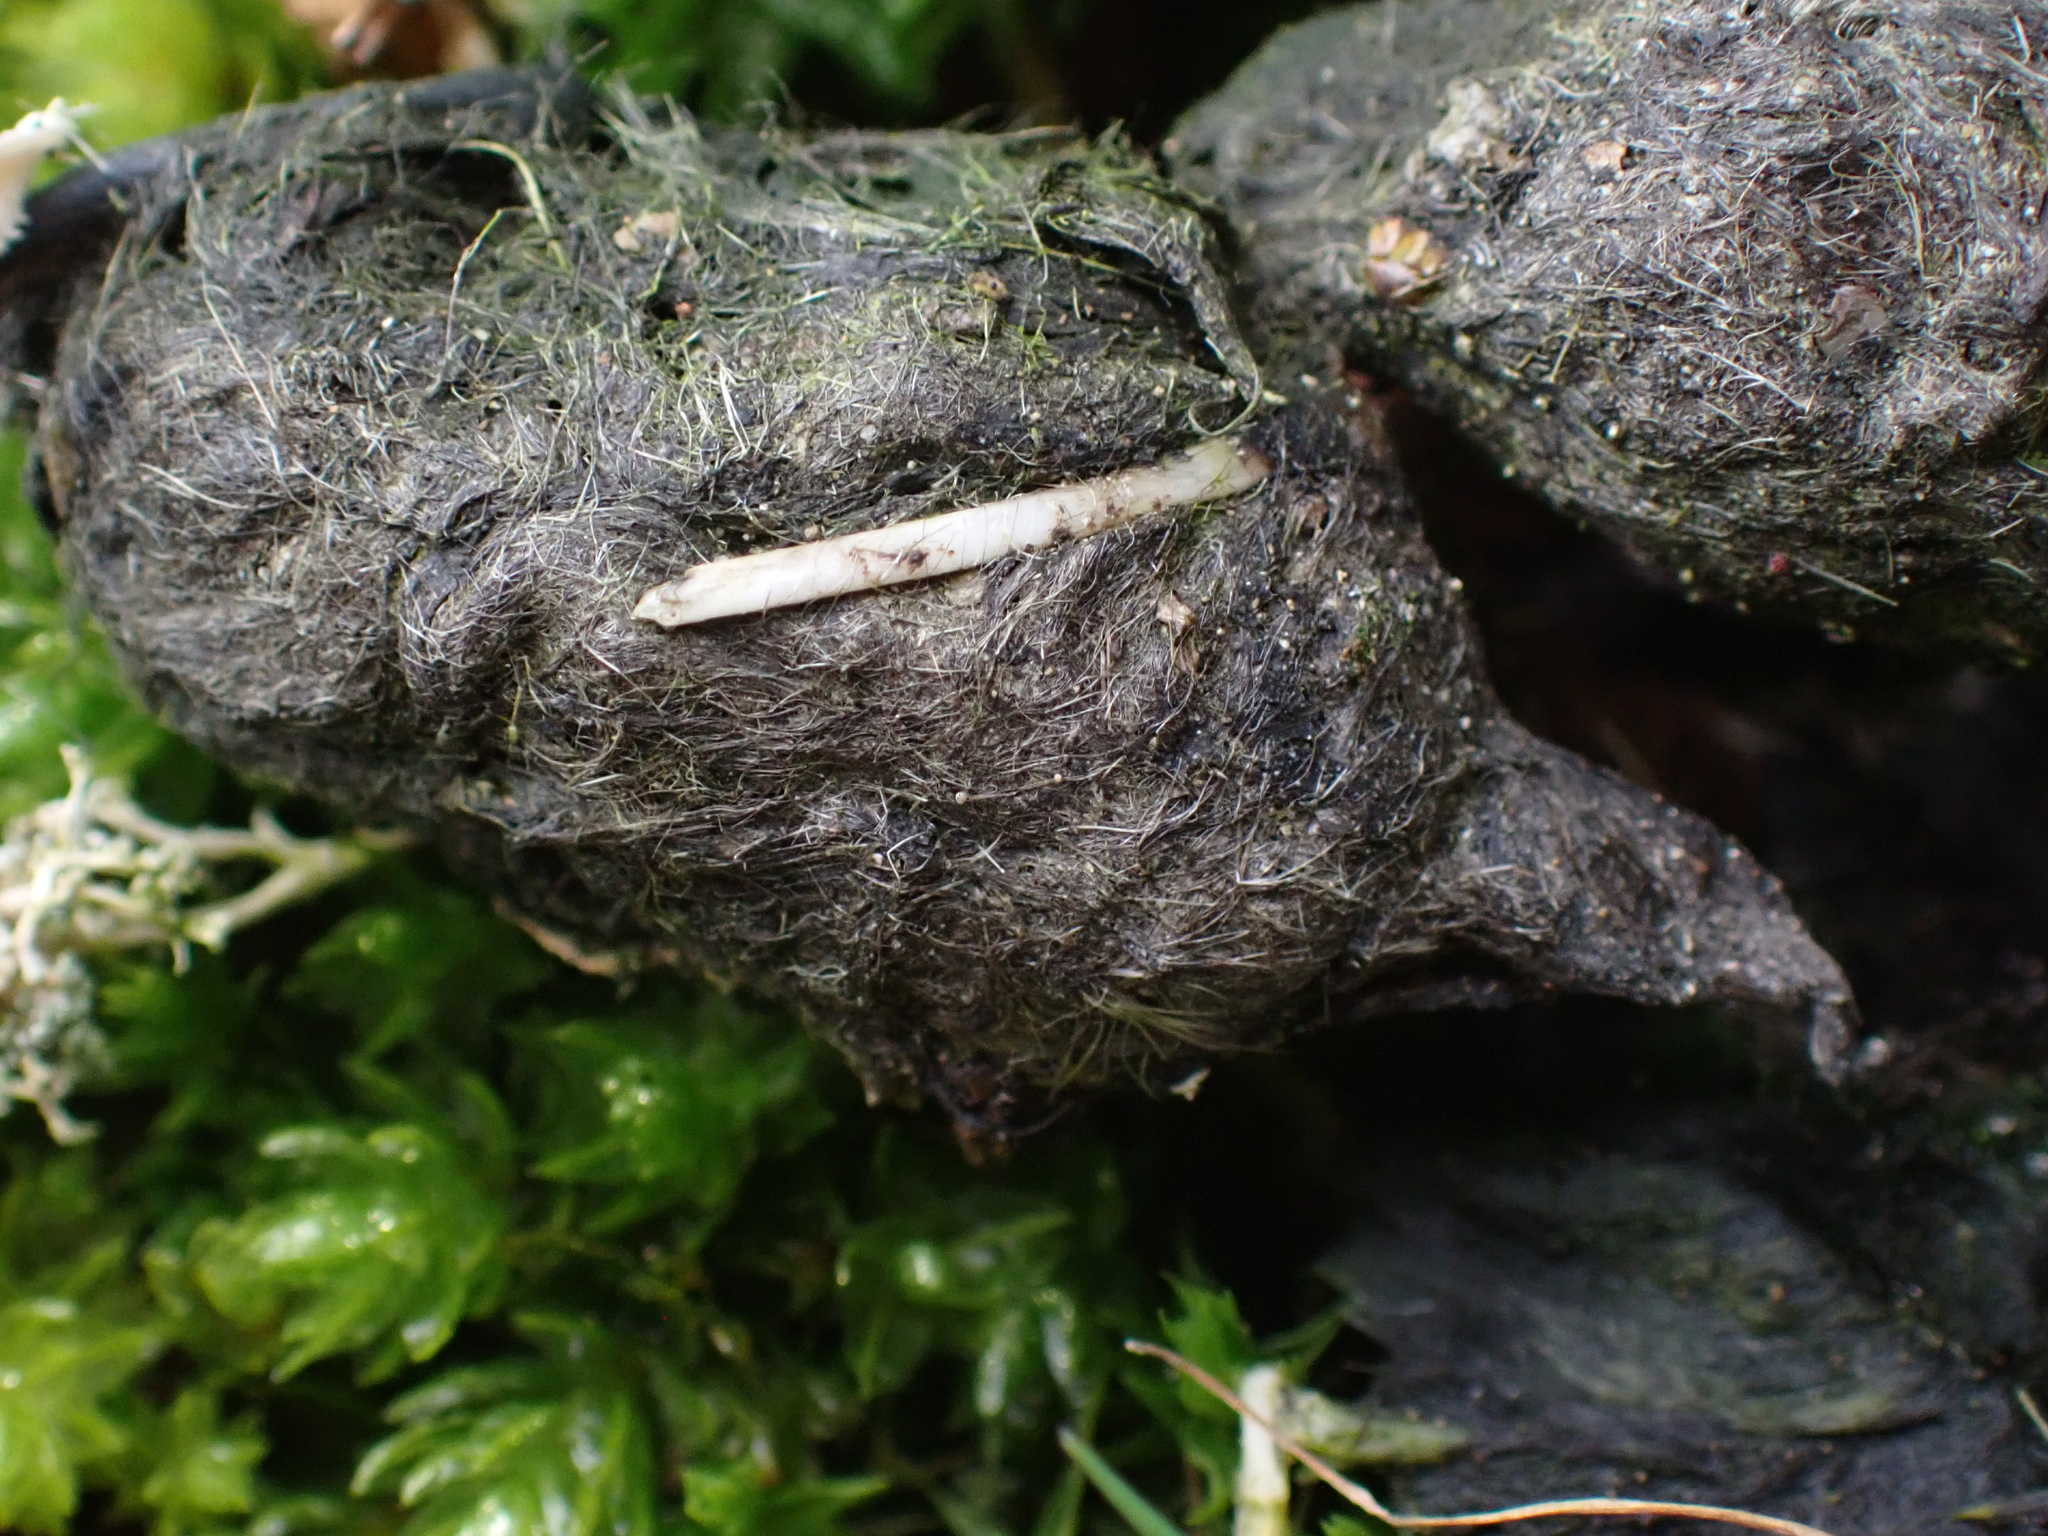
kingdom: Animalia
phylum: Chordata
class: Mammalia
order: Carnivora
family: Canidae
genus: Vulpes
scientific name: Vulpes vulpes
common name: Red fox
